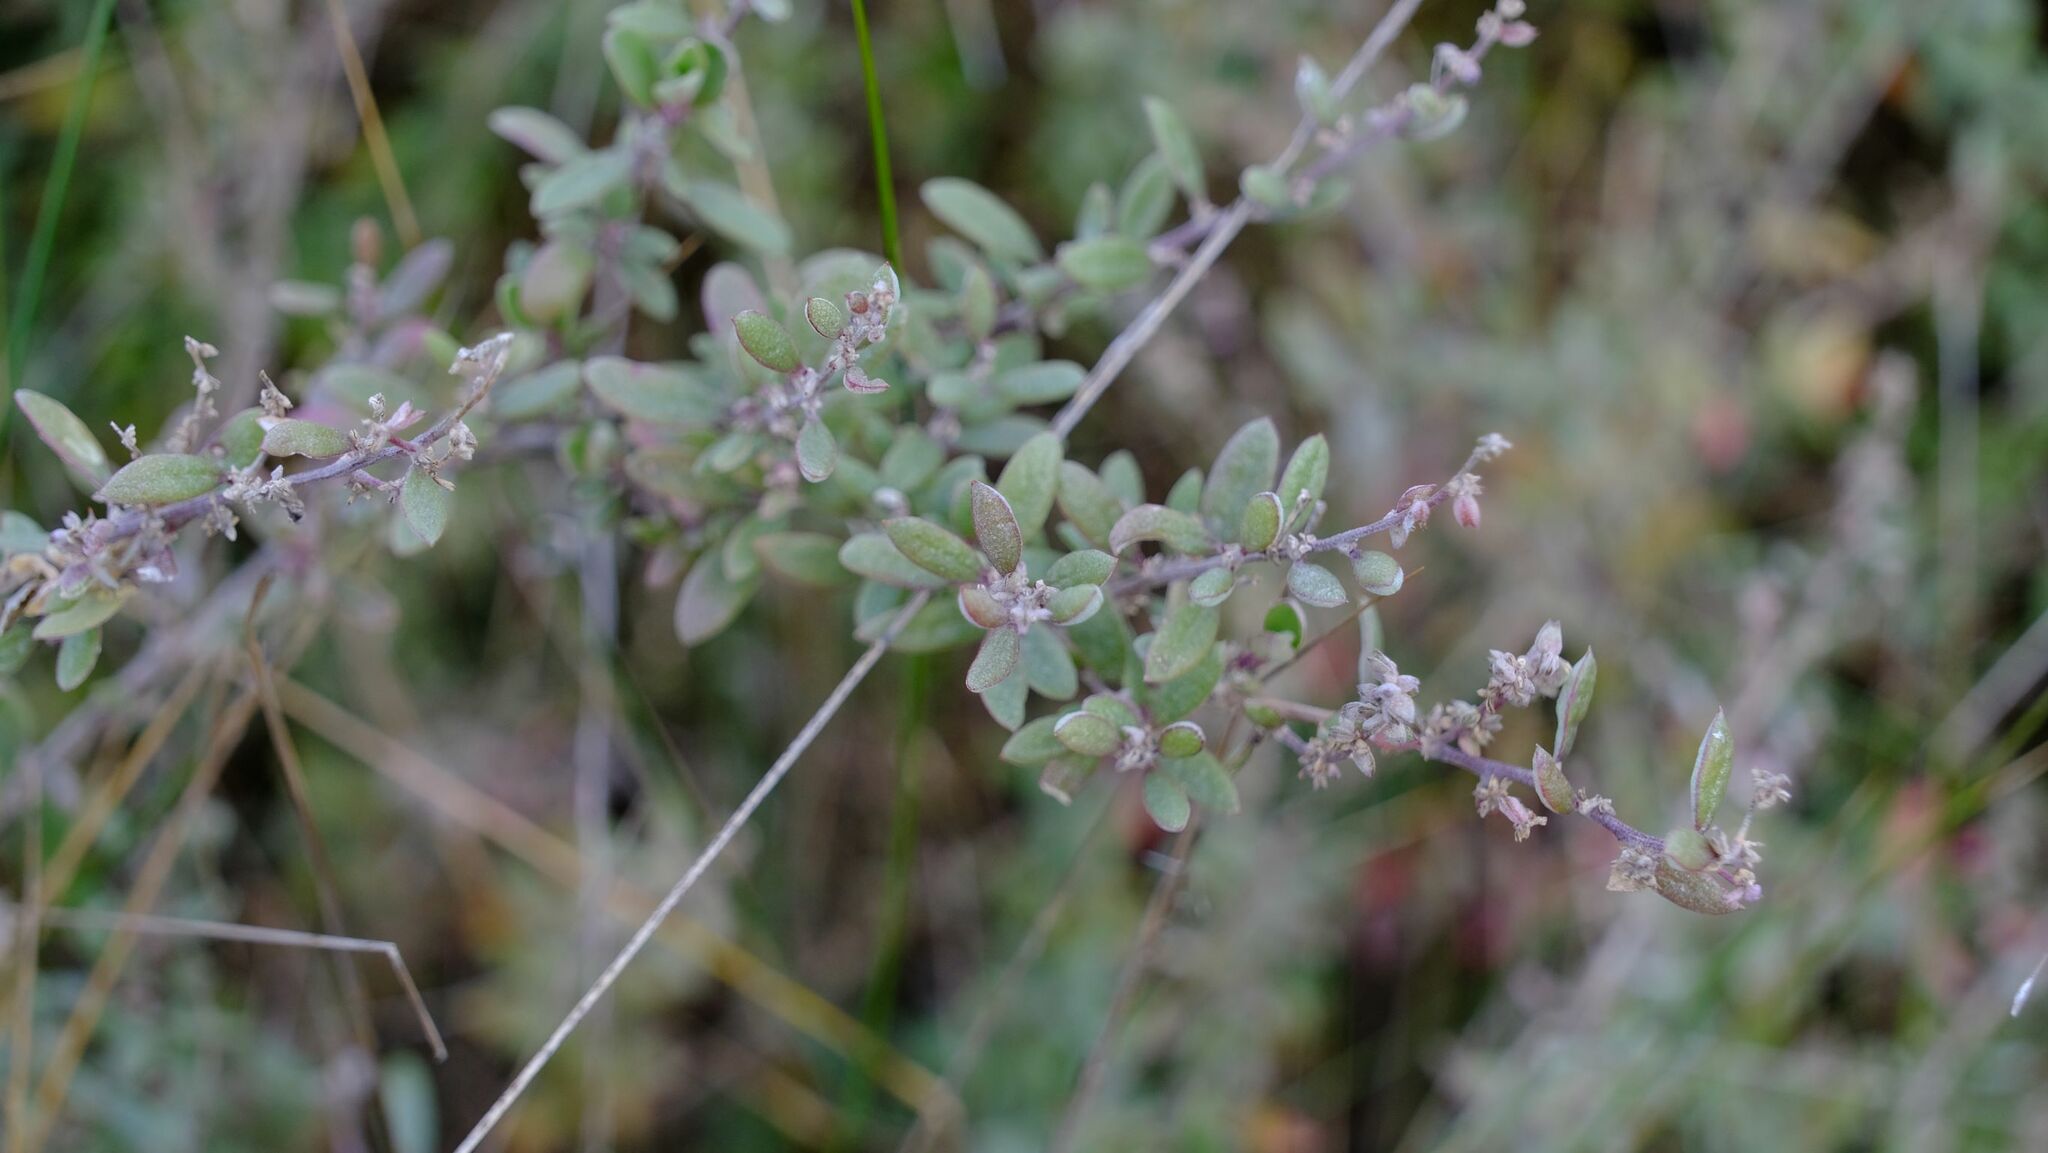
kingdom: Plantae
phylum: Tracheophyta
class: Magnoliopsida
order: Caryophyllales
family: Amaranthaceae
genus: Atriplex
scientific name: Atriplex paludosa
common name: Marsh saltbush
